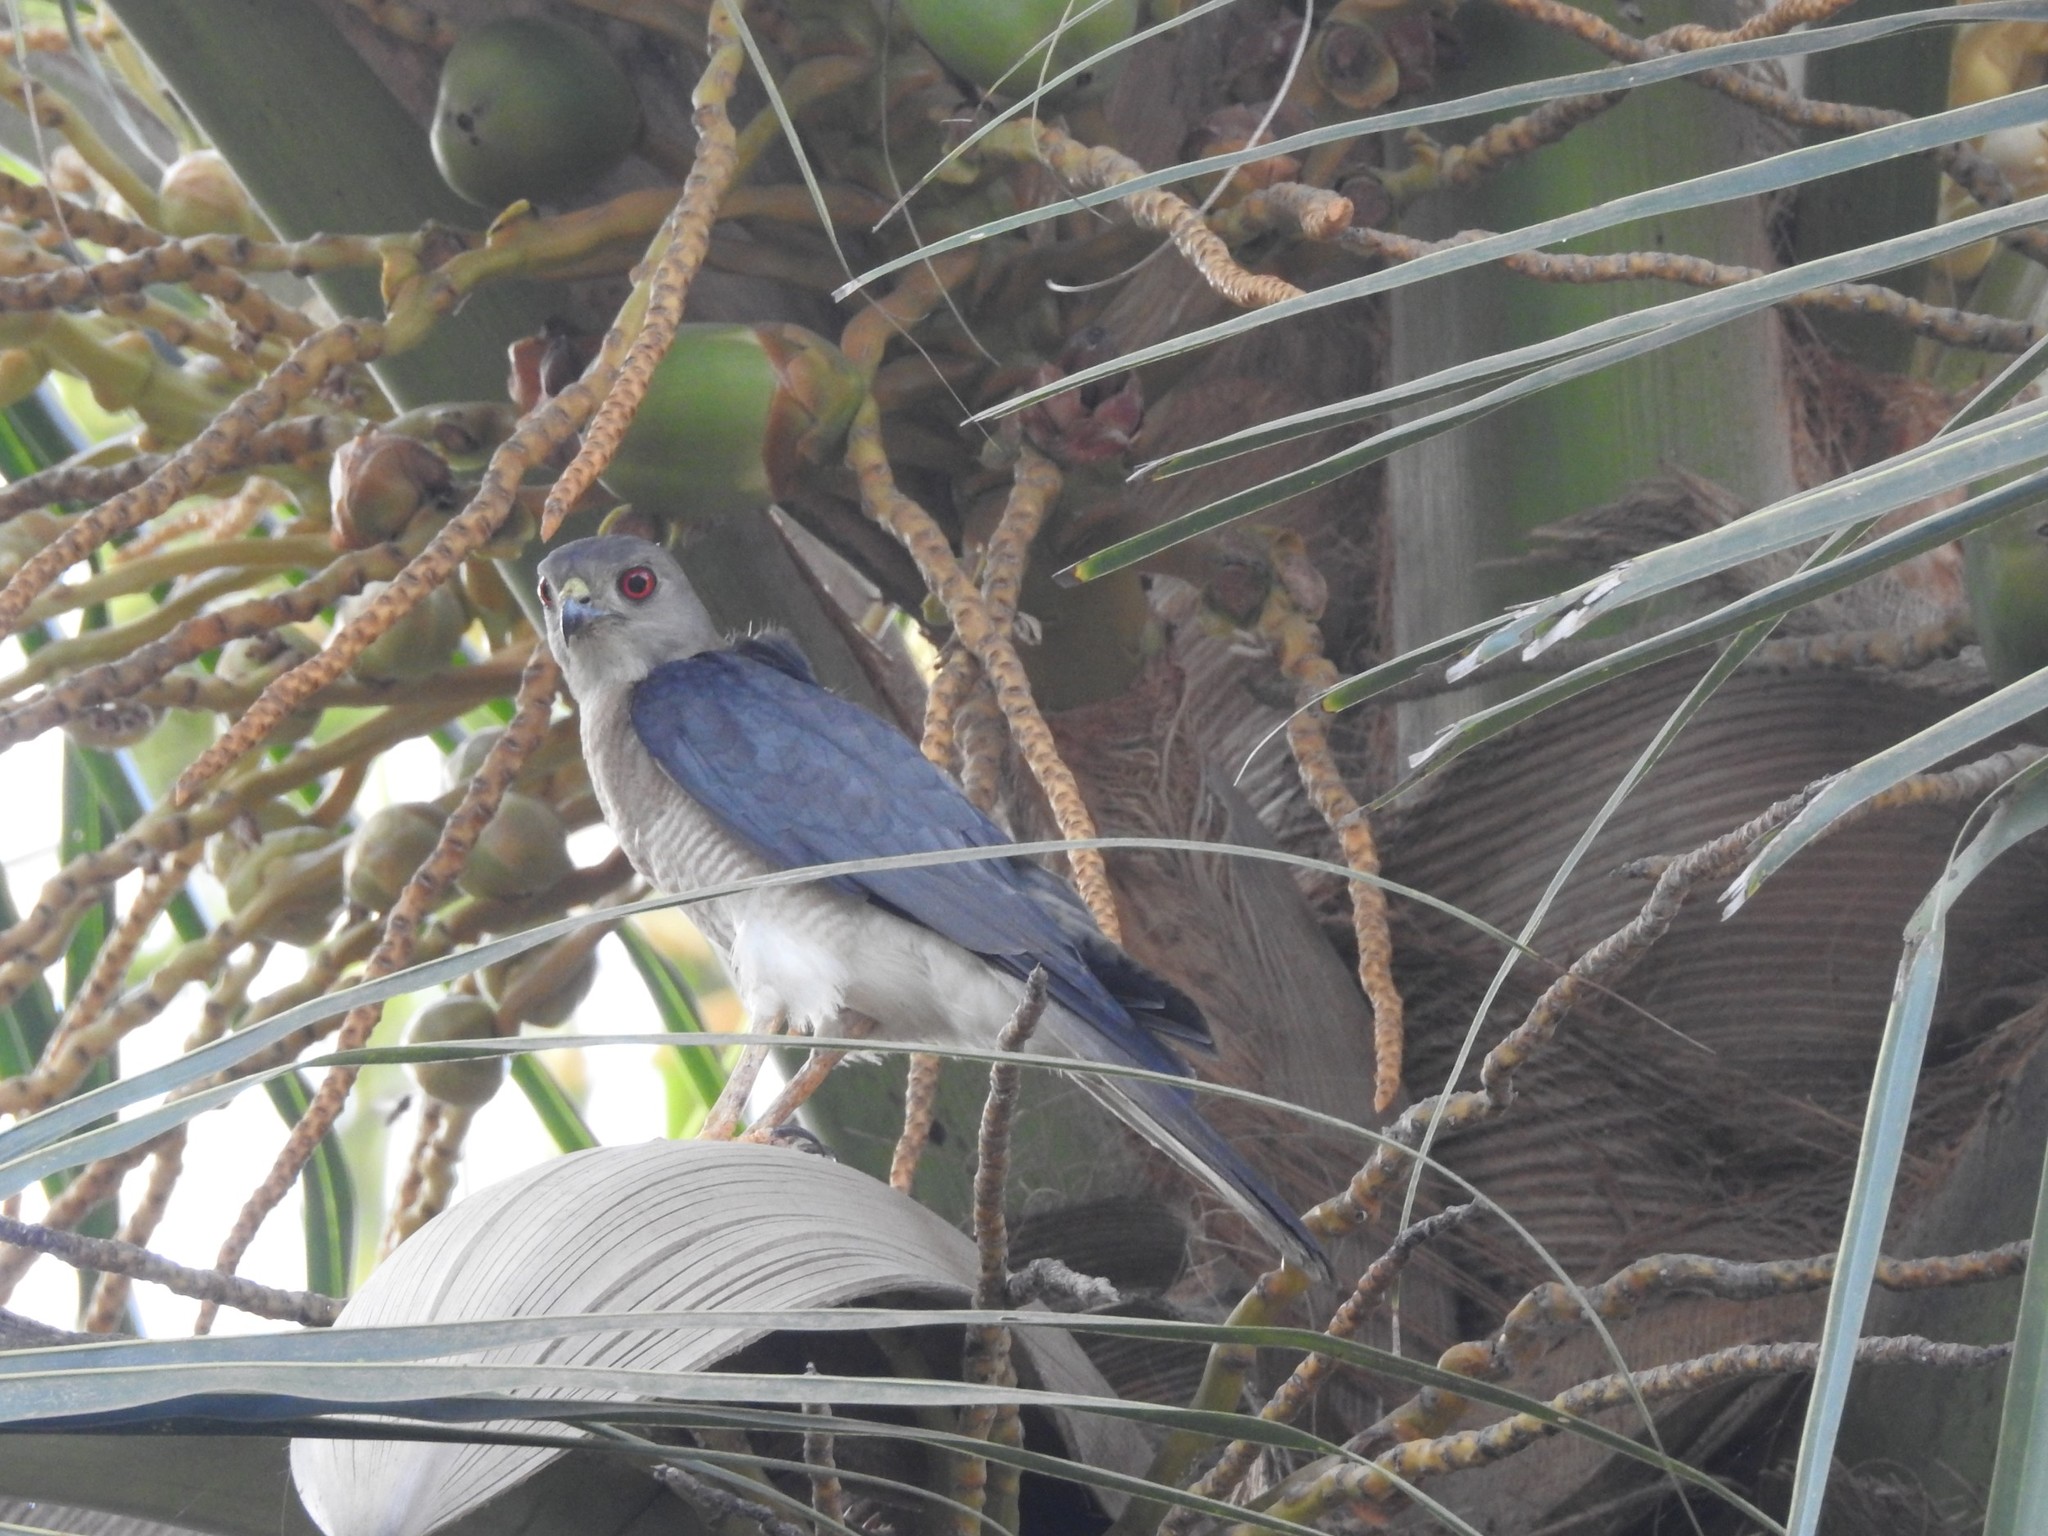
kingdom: Animalia
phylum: Chordata
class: Aves
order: Accipitriformes
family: Accipitridae
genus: Accipiter
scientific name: Accipiter badius
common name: Shikra
